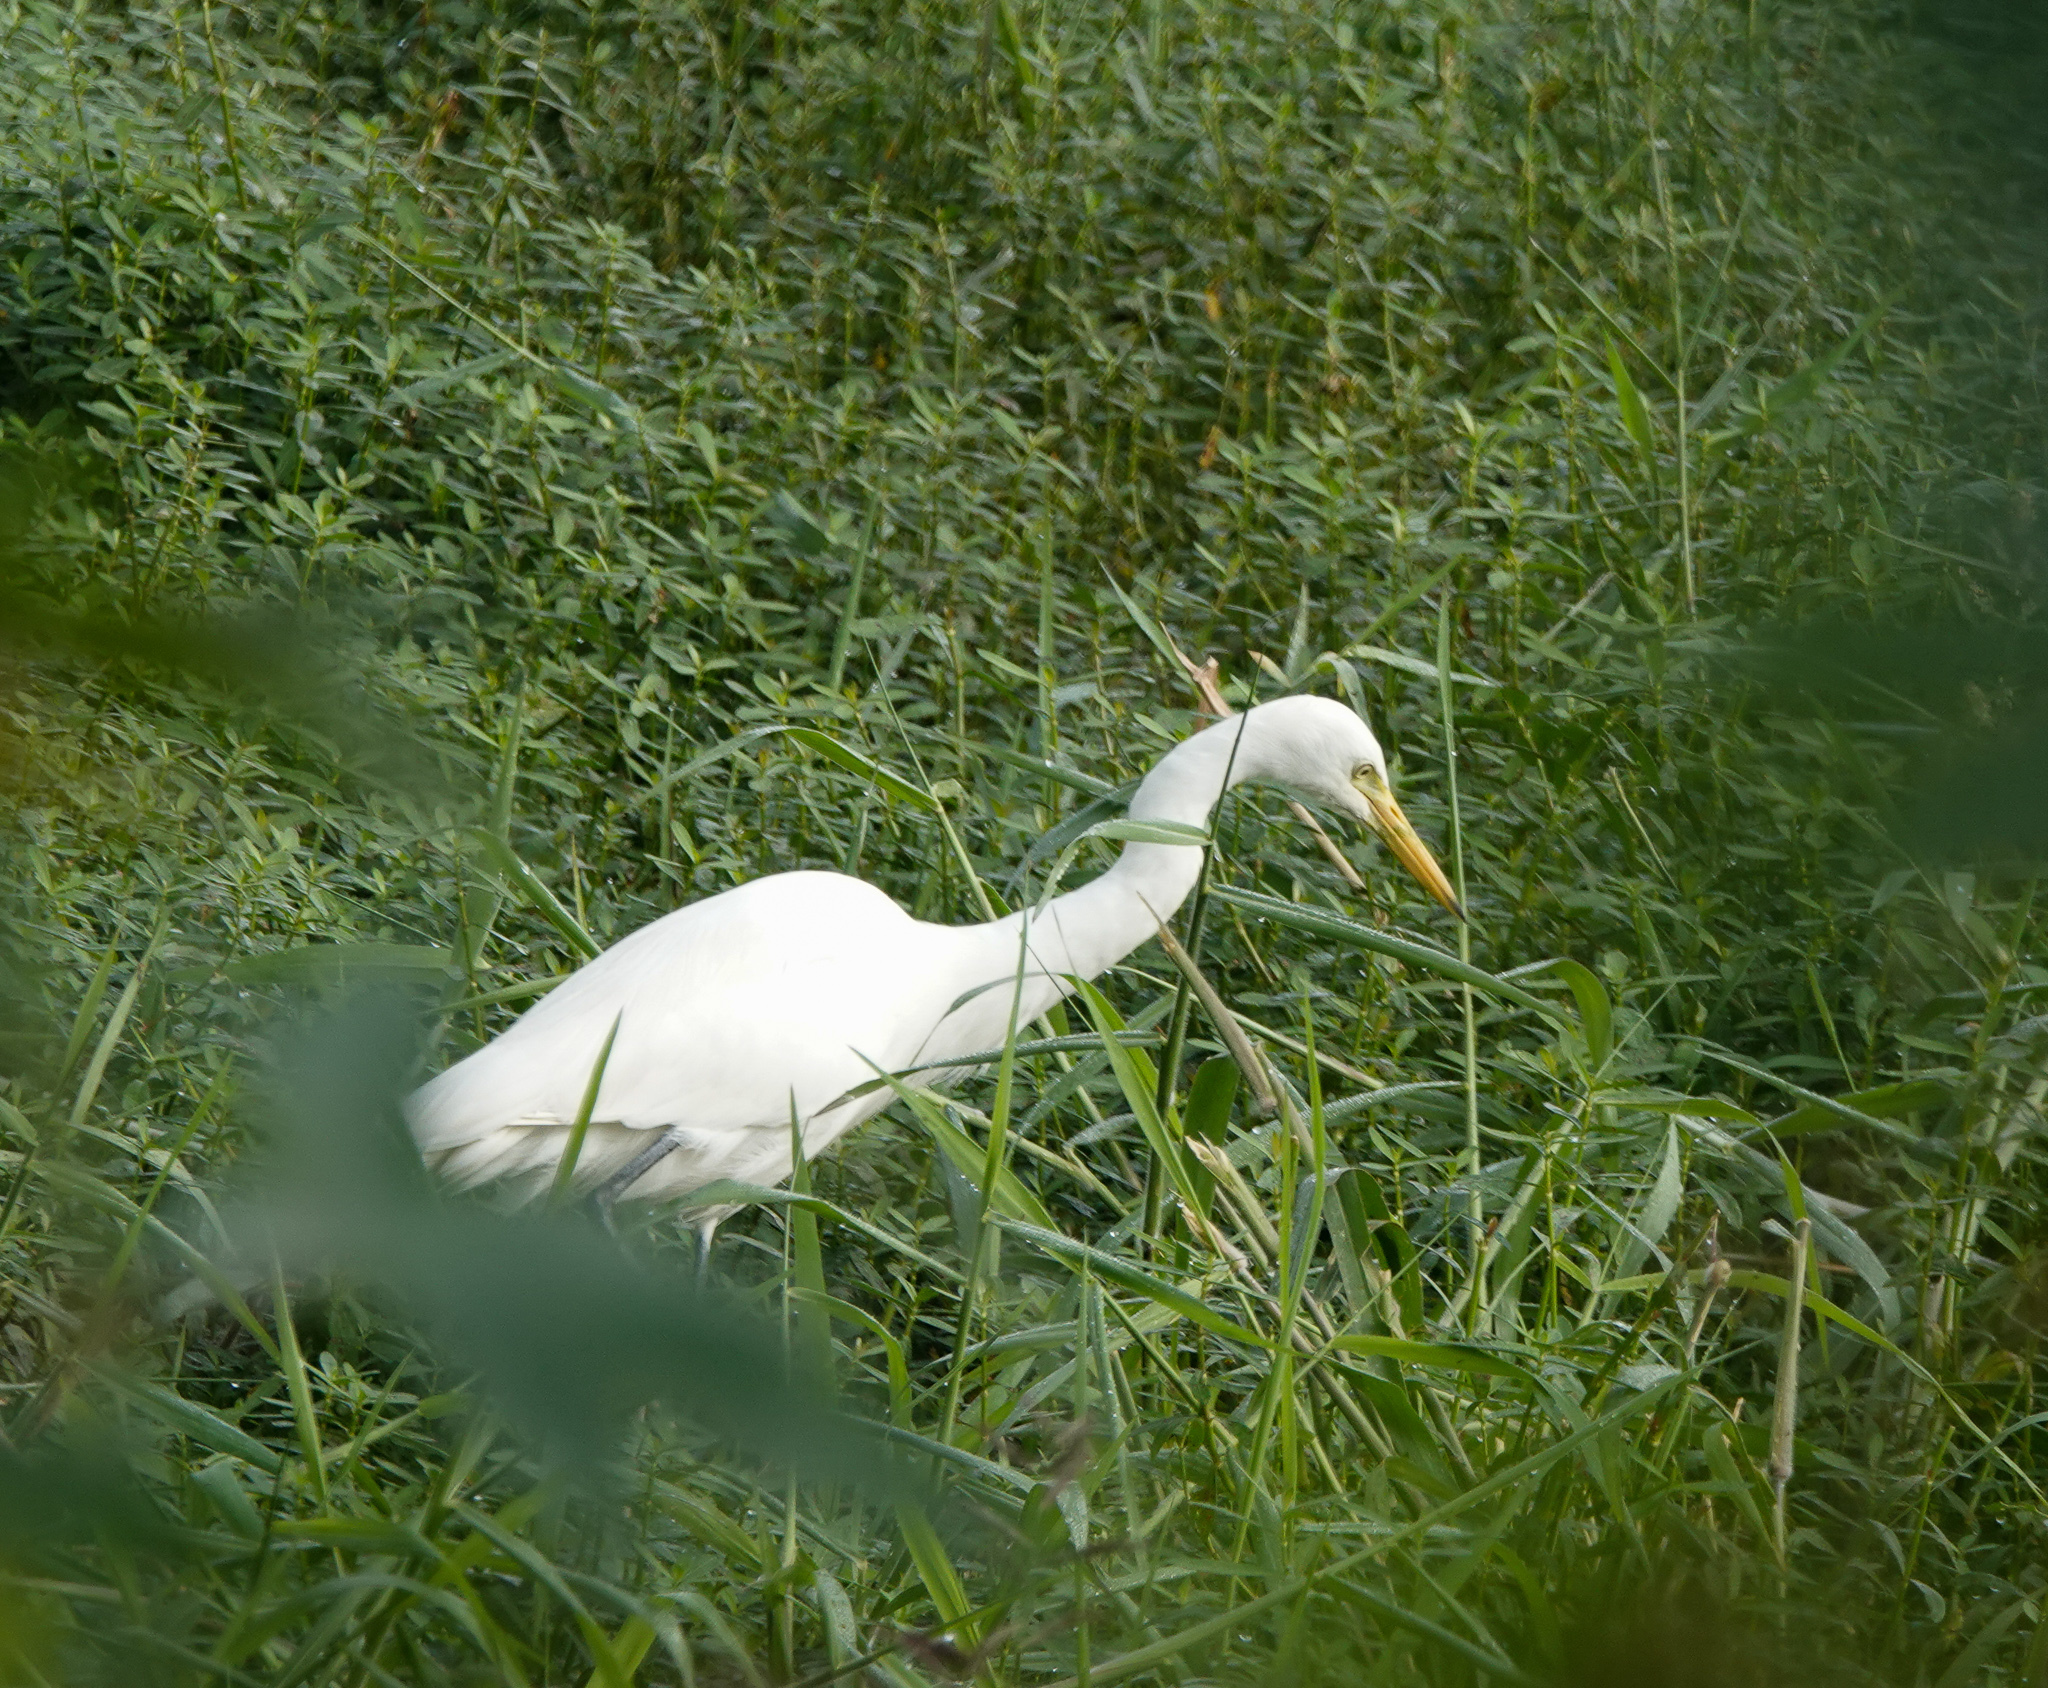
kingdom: Animalia
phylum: Chordata
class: Aves
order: Pelecaniformes
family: Ardeidae
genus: Egretta
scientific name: Egretta intermedia
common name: Intermediate egret
